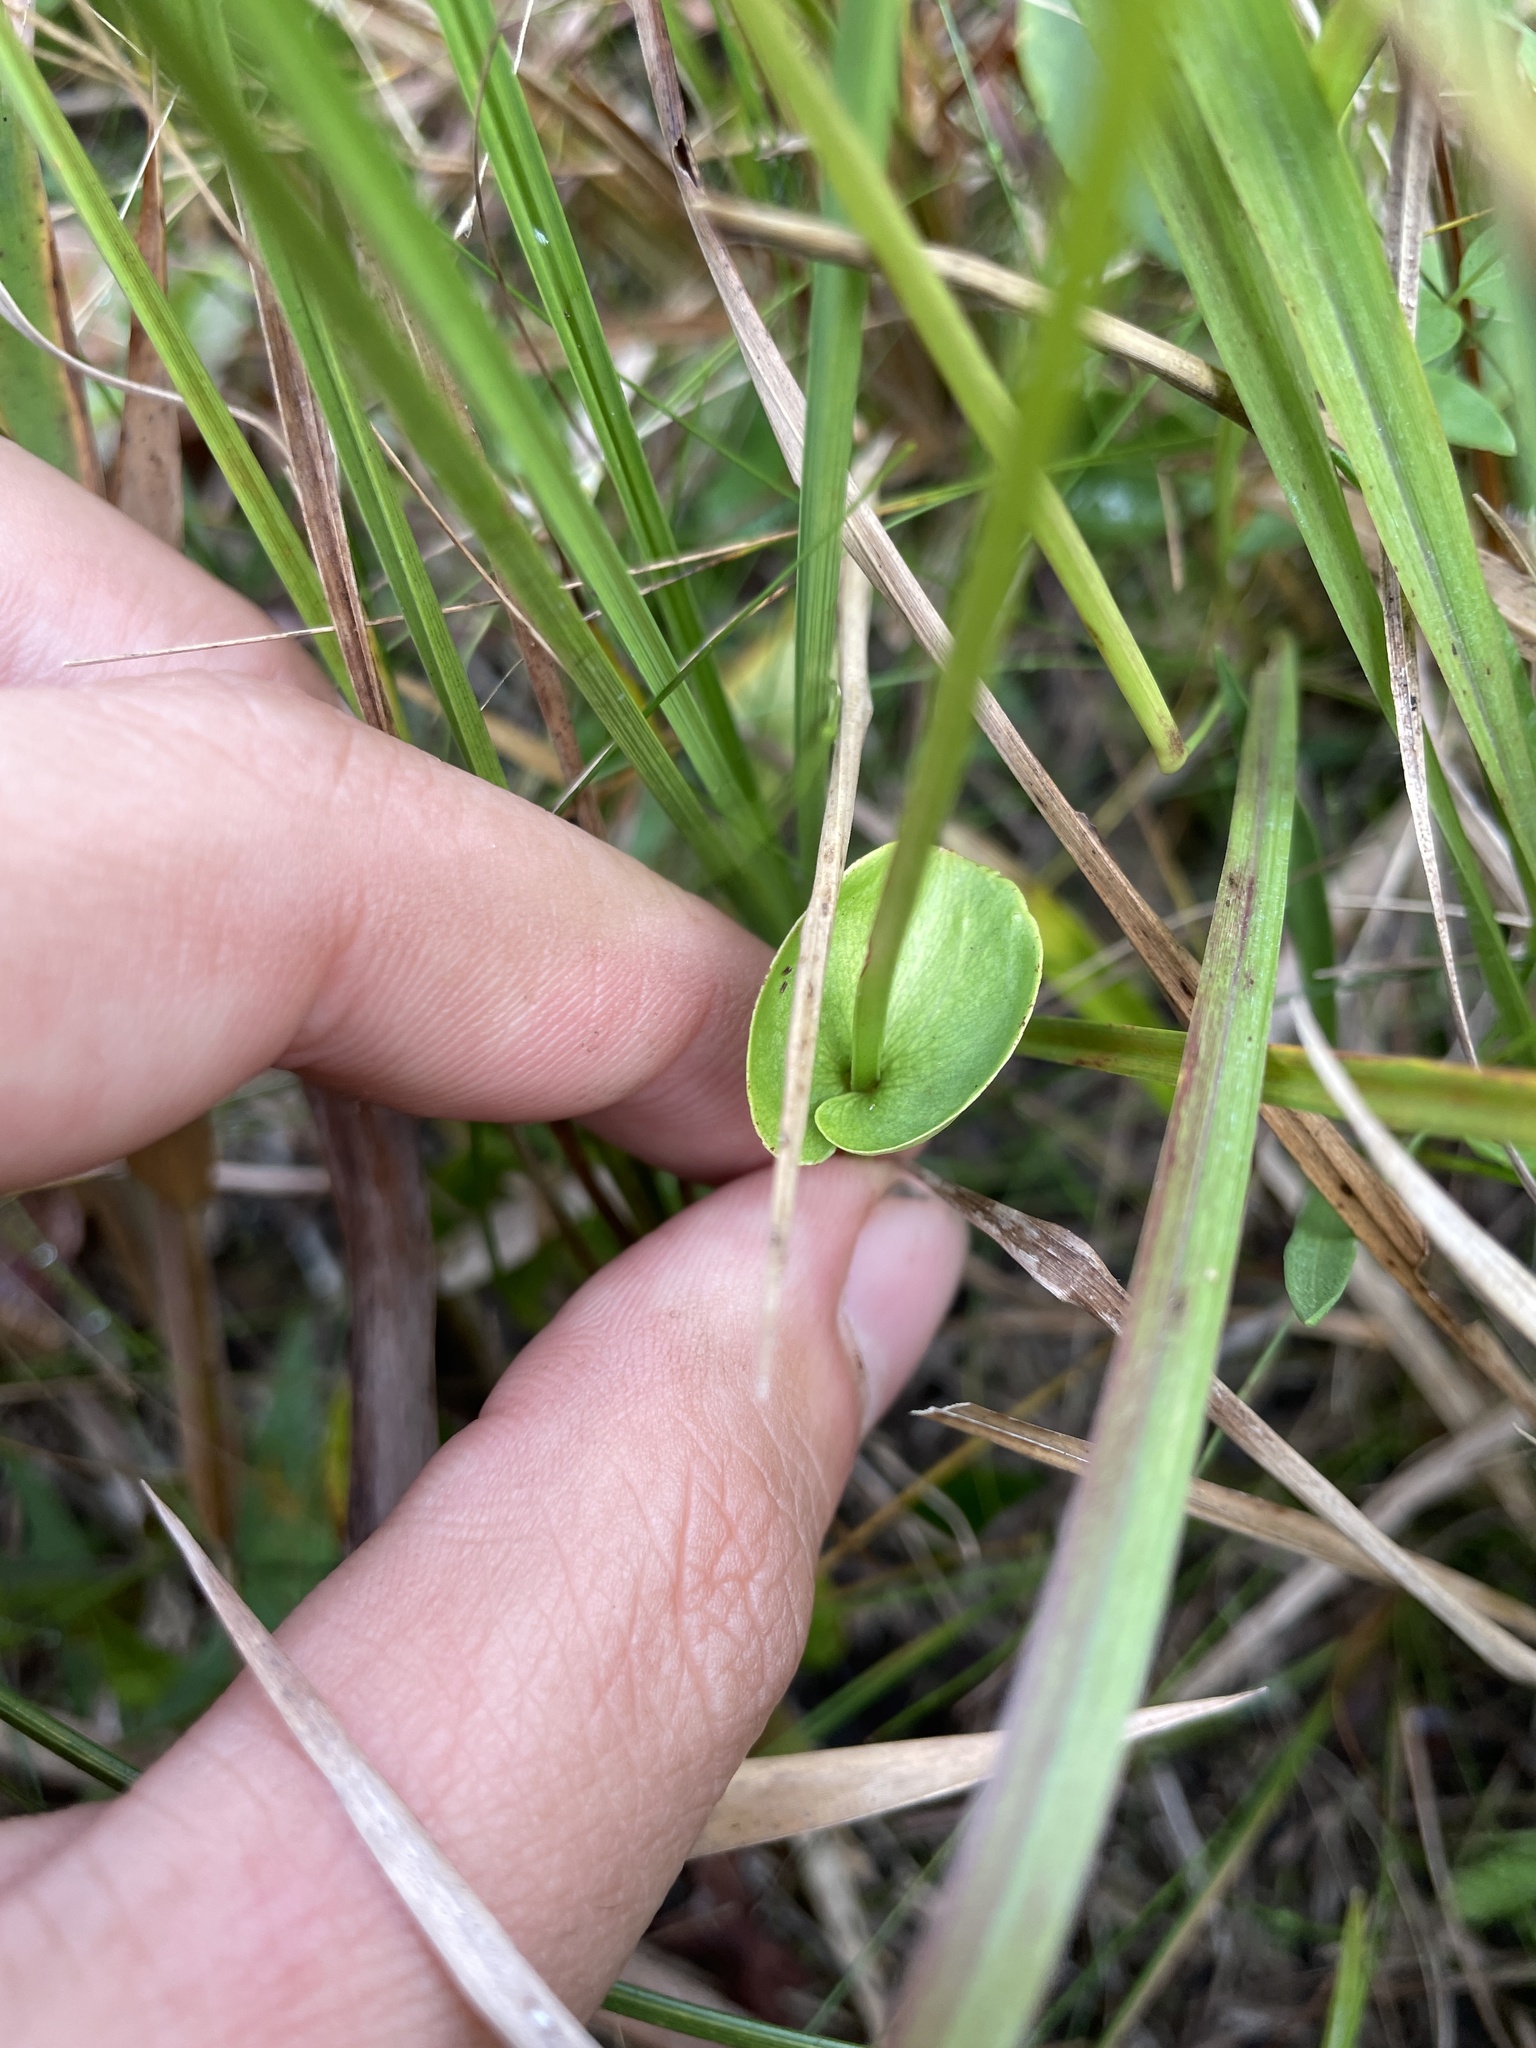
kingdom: Plantae
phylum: Tracheophyta
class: Magnoliopsida
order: Celastrales
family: Parnassiaceae
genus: Parnassia
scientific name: Parnassia caroliniana
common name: Carolina grass of parnassus
